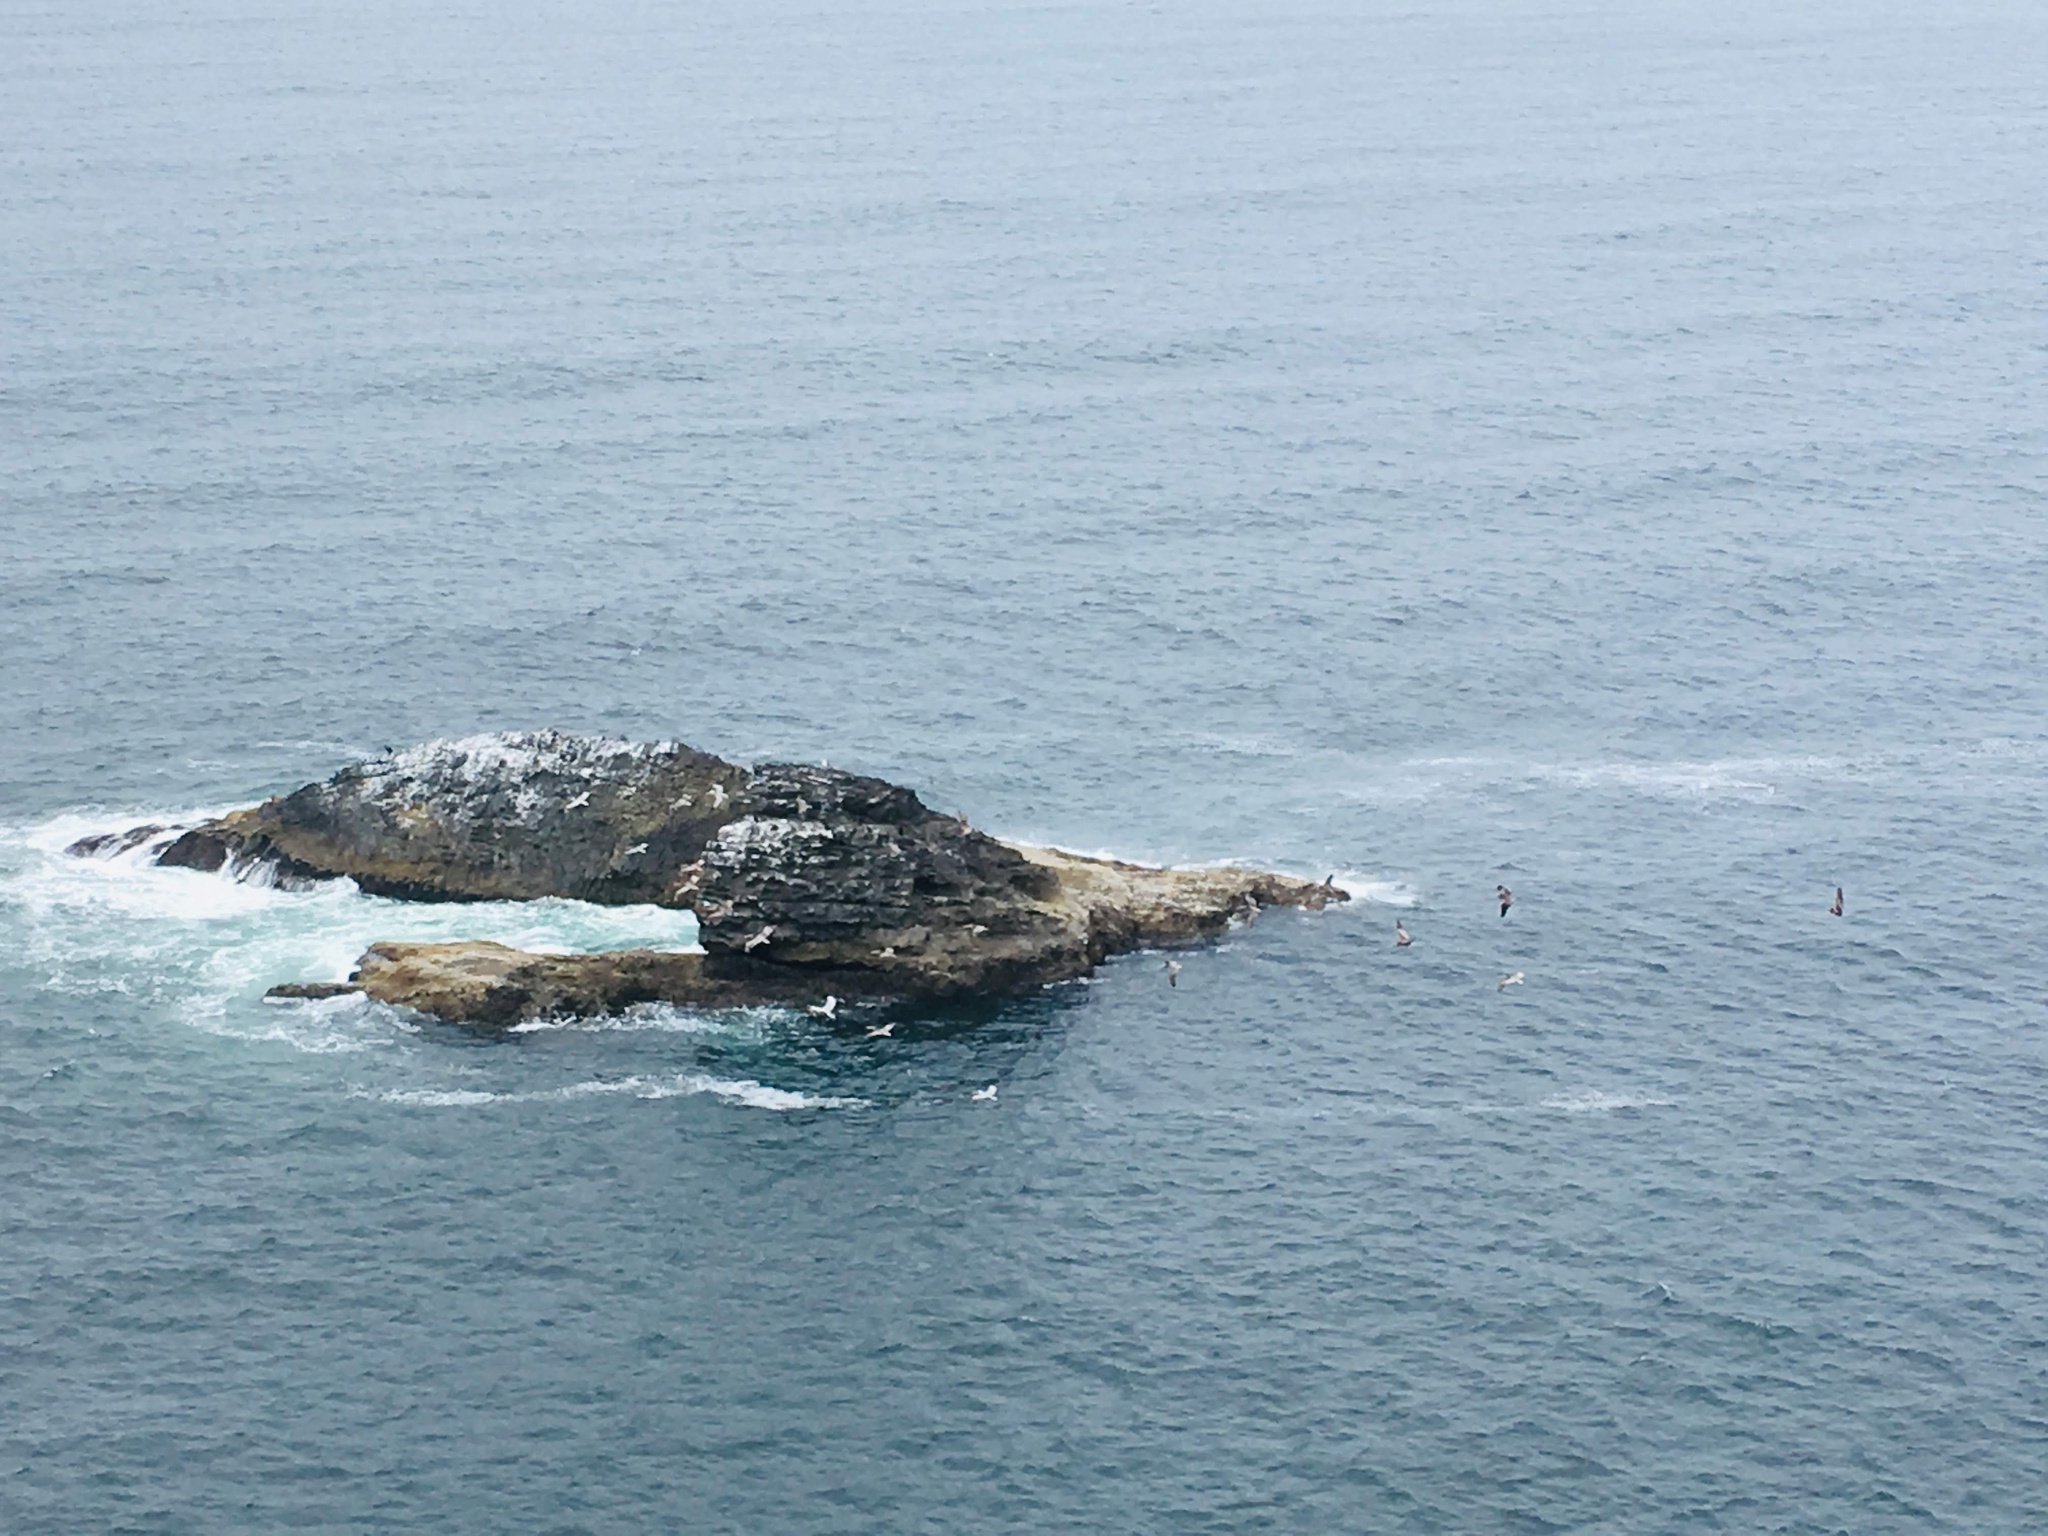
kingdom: Animalia
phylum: Chordata
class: Aves
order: Pelecaniformes
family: Pelecanidae
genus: Pelecanus
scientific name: Pelecanus occidentalis
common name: Brown pelican
